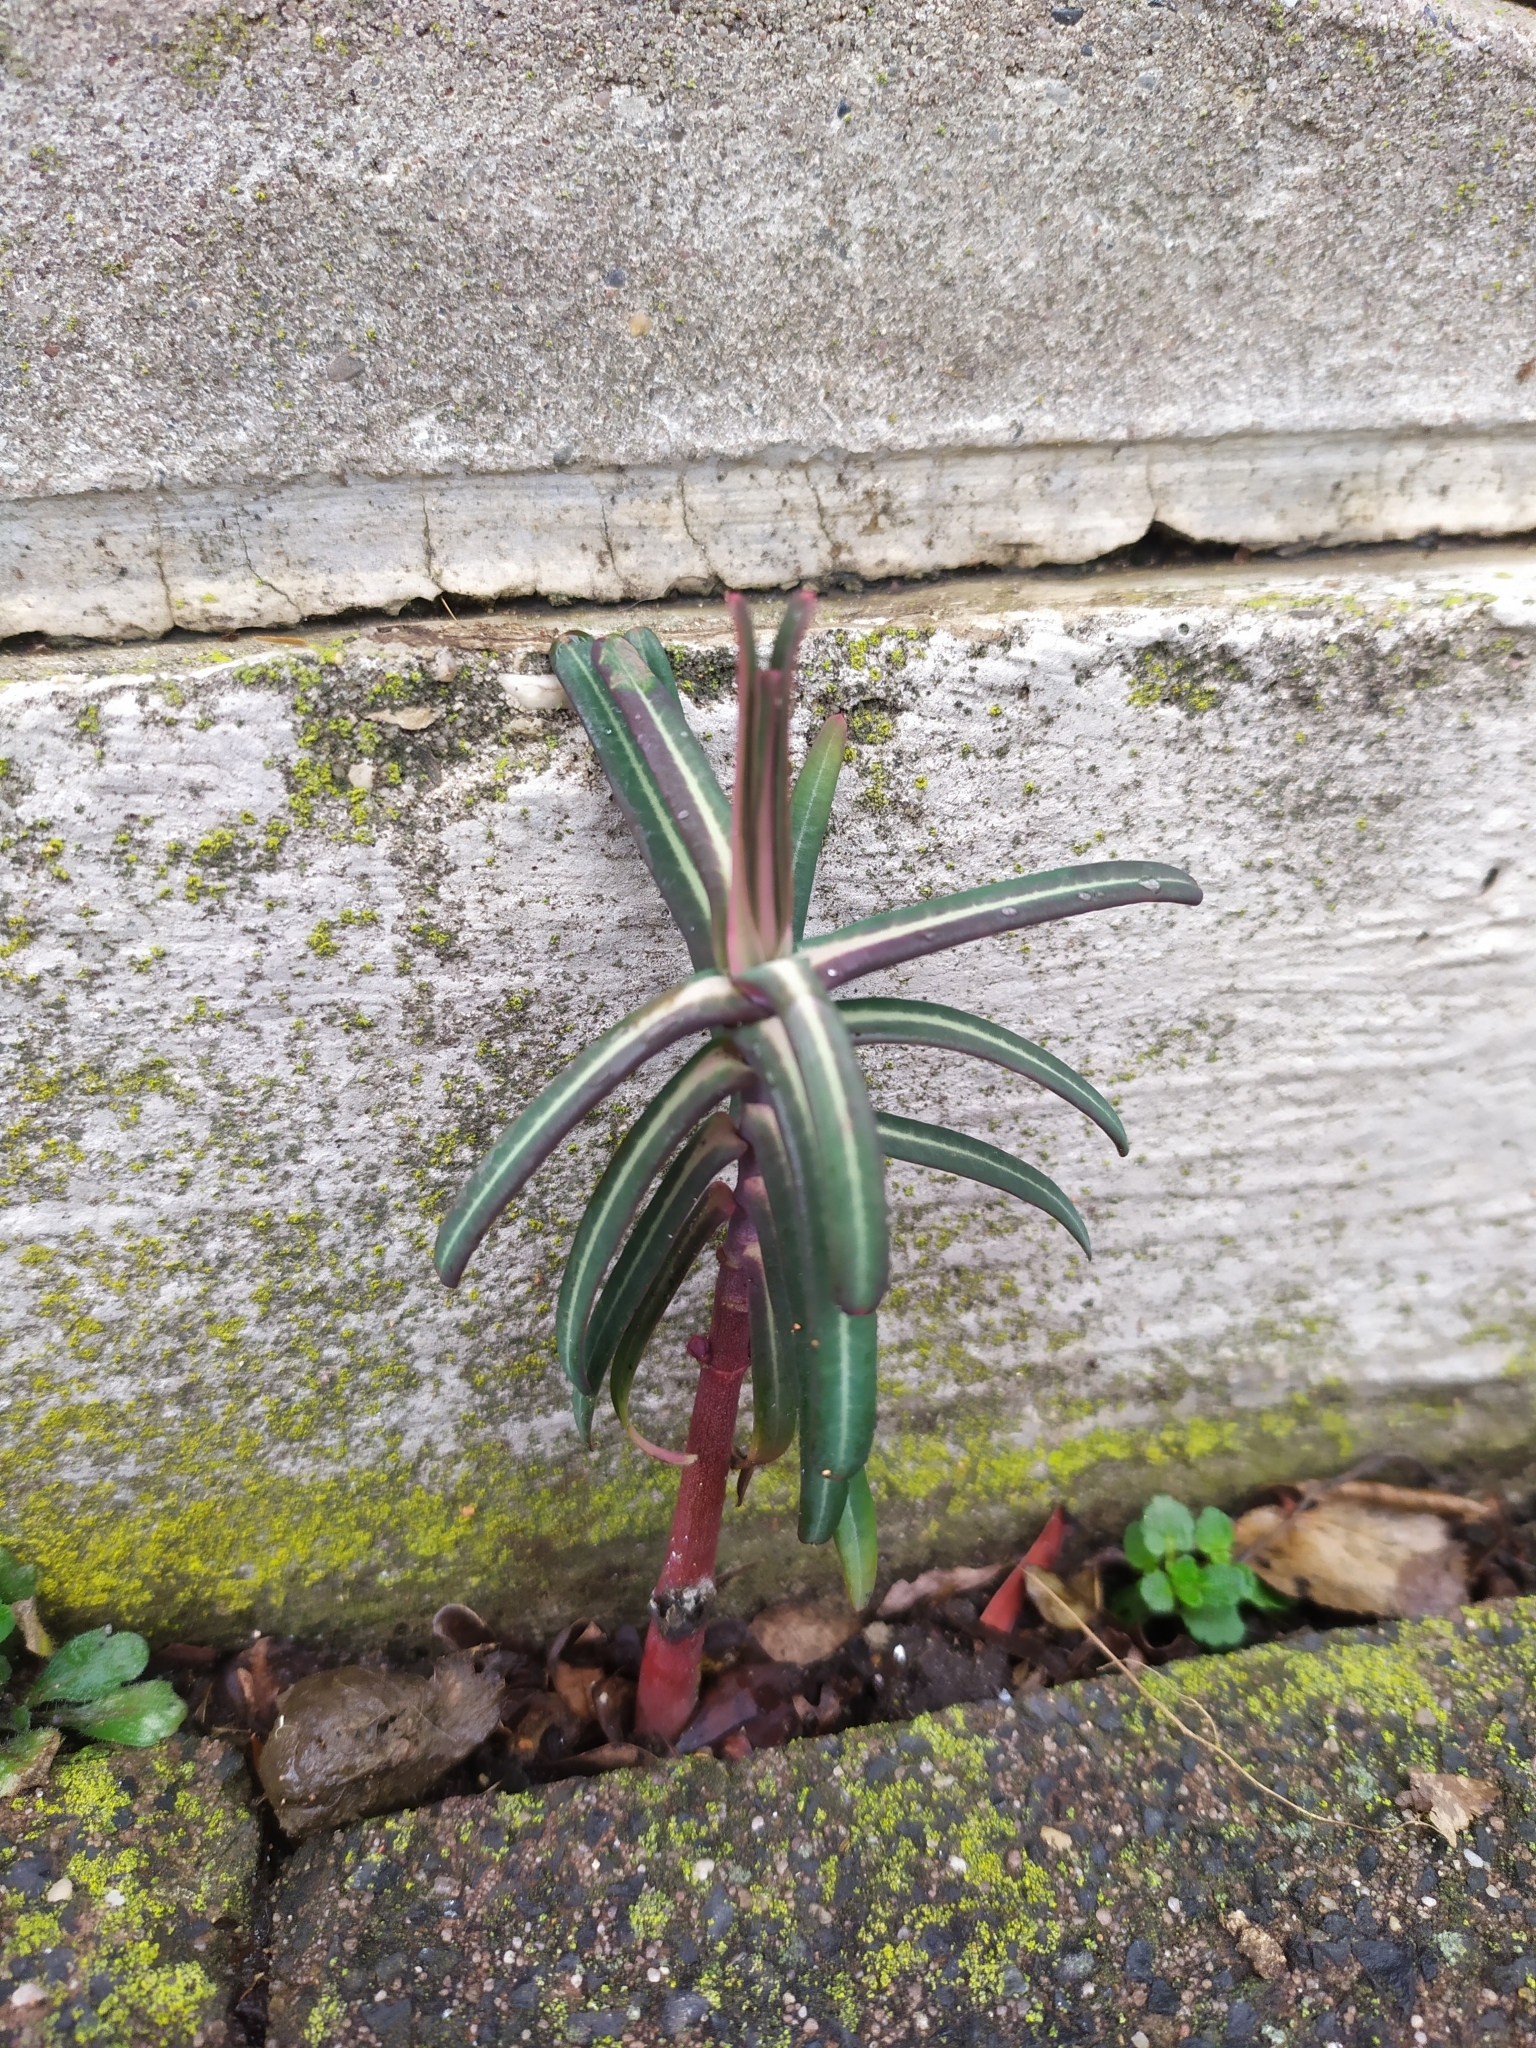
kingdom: Plantae
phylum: Tracheophyta
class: Magnoliopsida
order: Malpighiales
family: Euphorbiaceae
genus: Euphorbia
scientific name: Euphorbia lathyris
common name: Caper spurge
